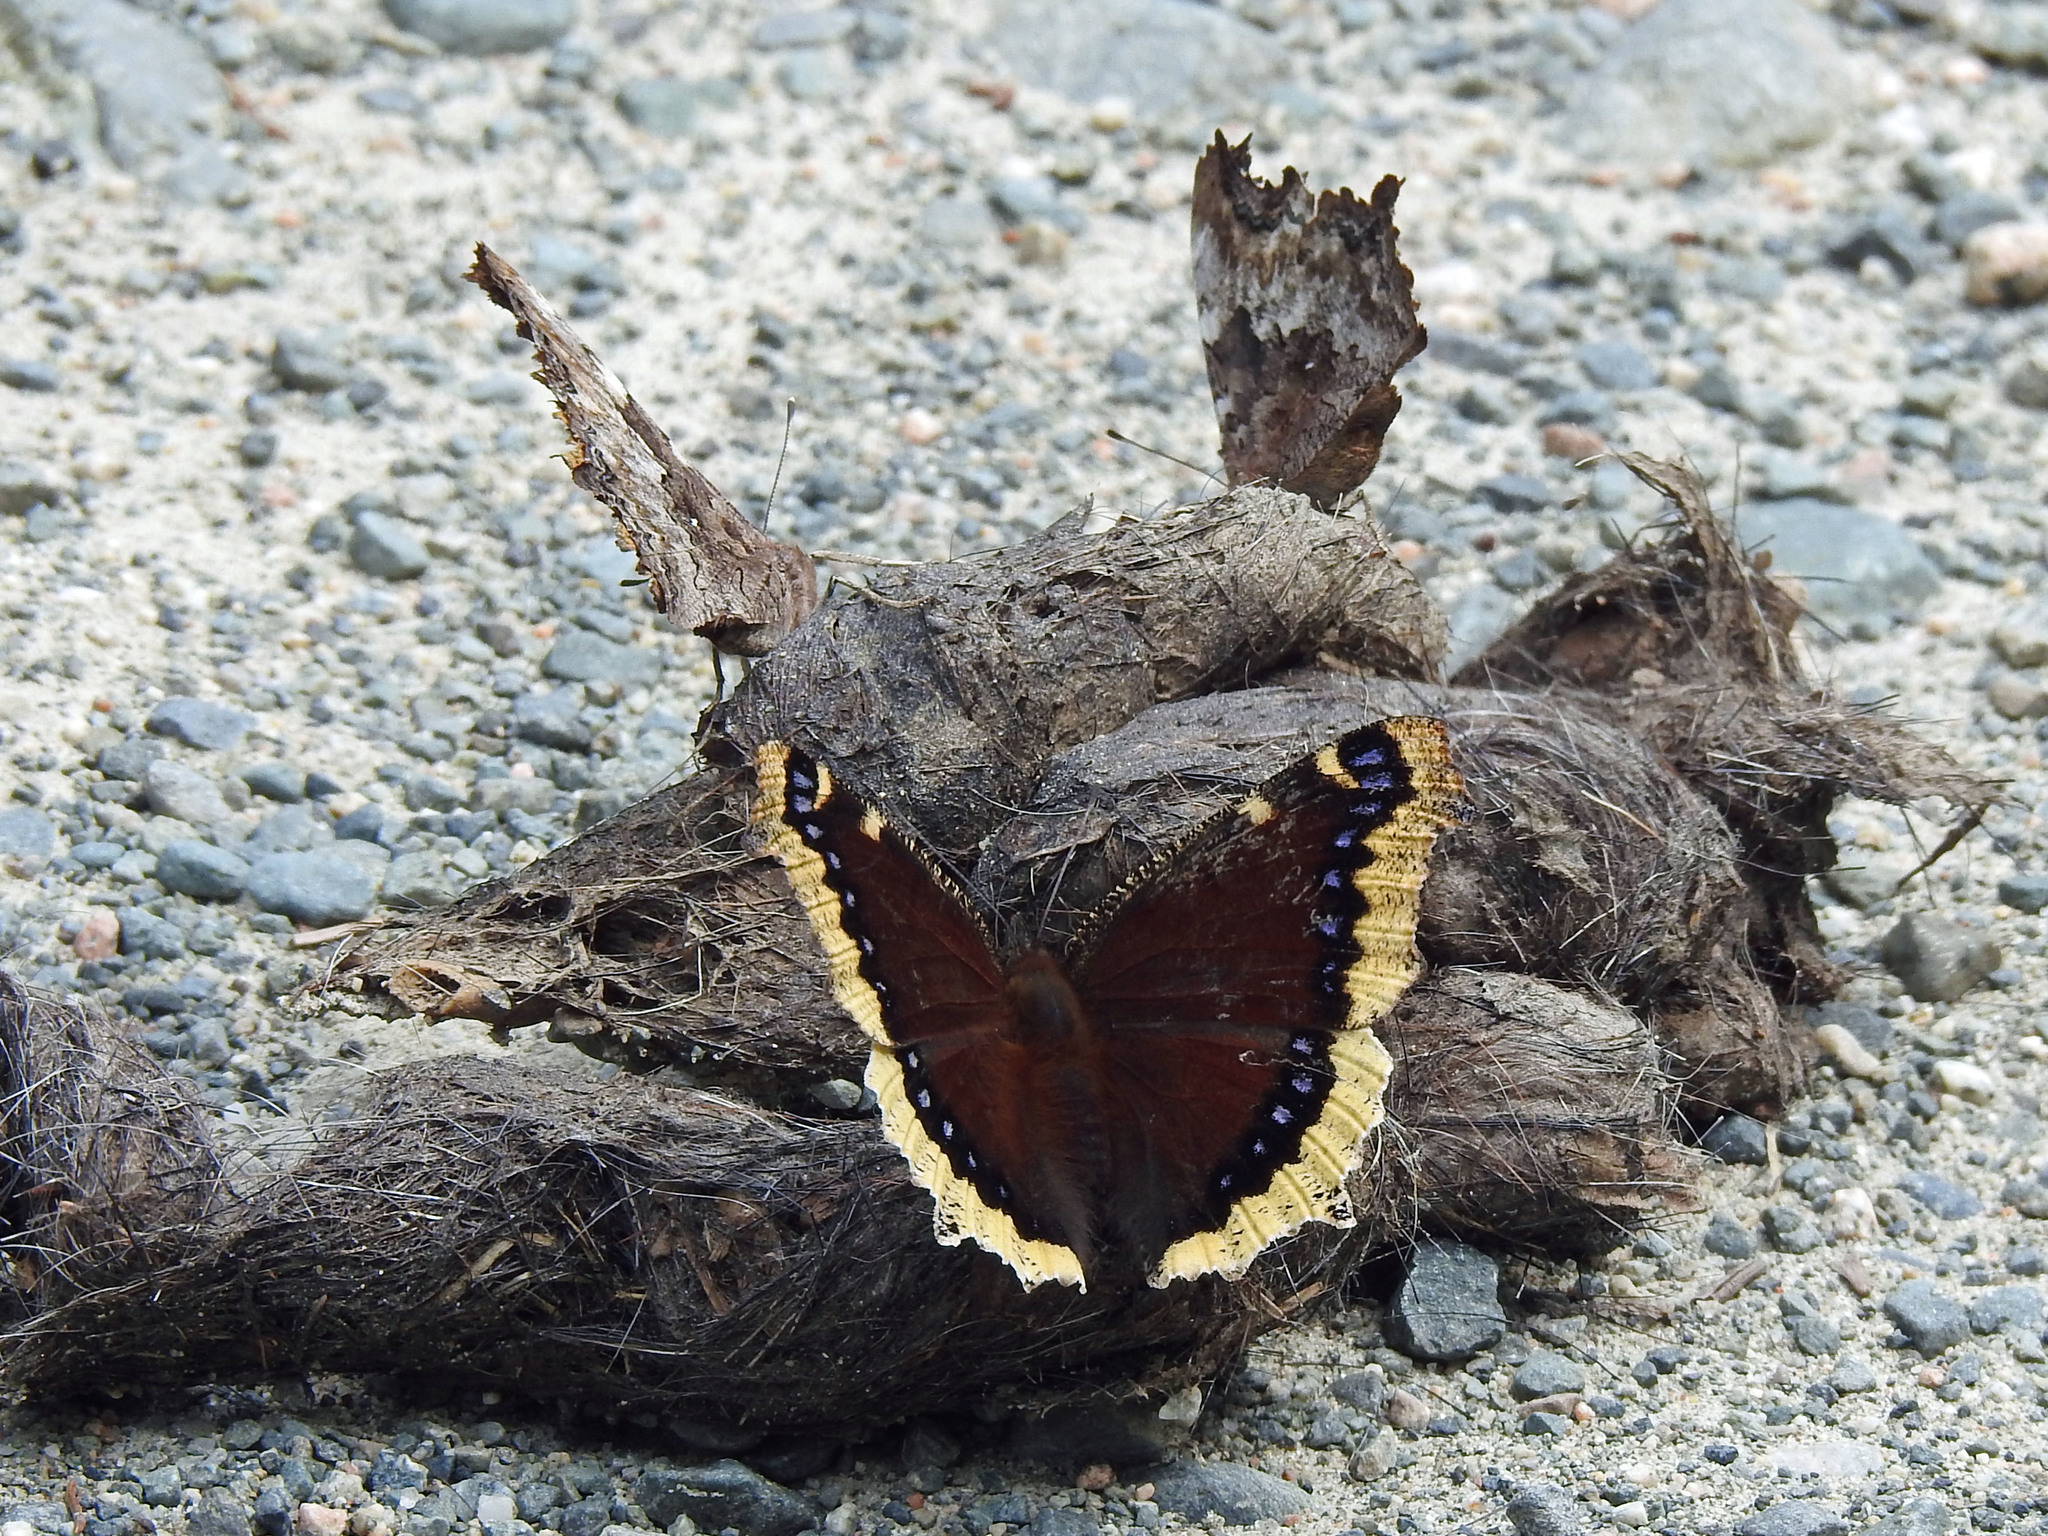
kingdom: Animalia
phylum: Arthropoda
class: Insecta
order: Lepidoptera
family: Nymphalidae
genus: Nymphalis
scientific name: Nymphalis antiopa
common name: Camberwell beauty
